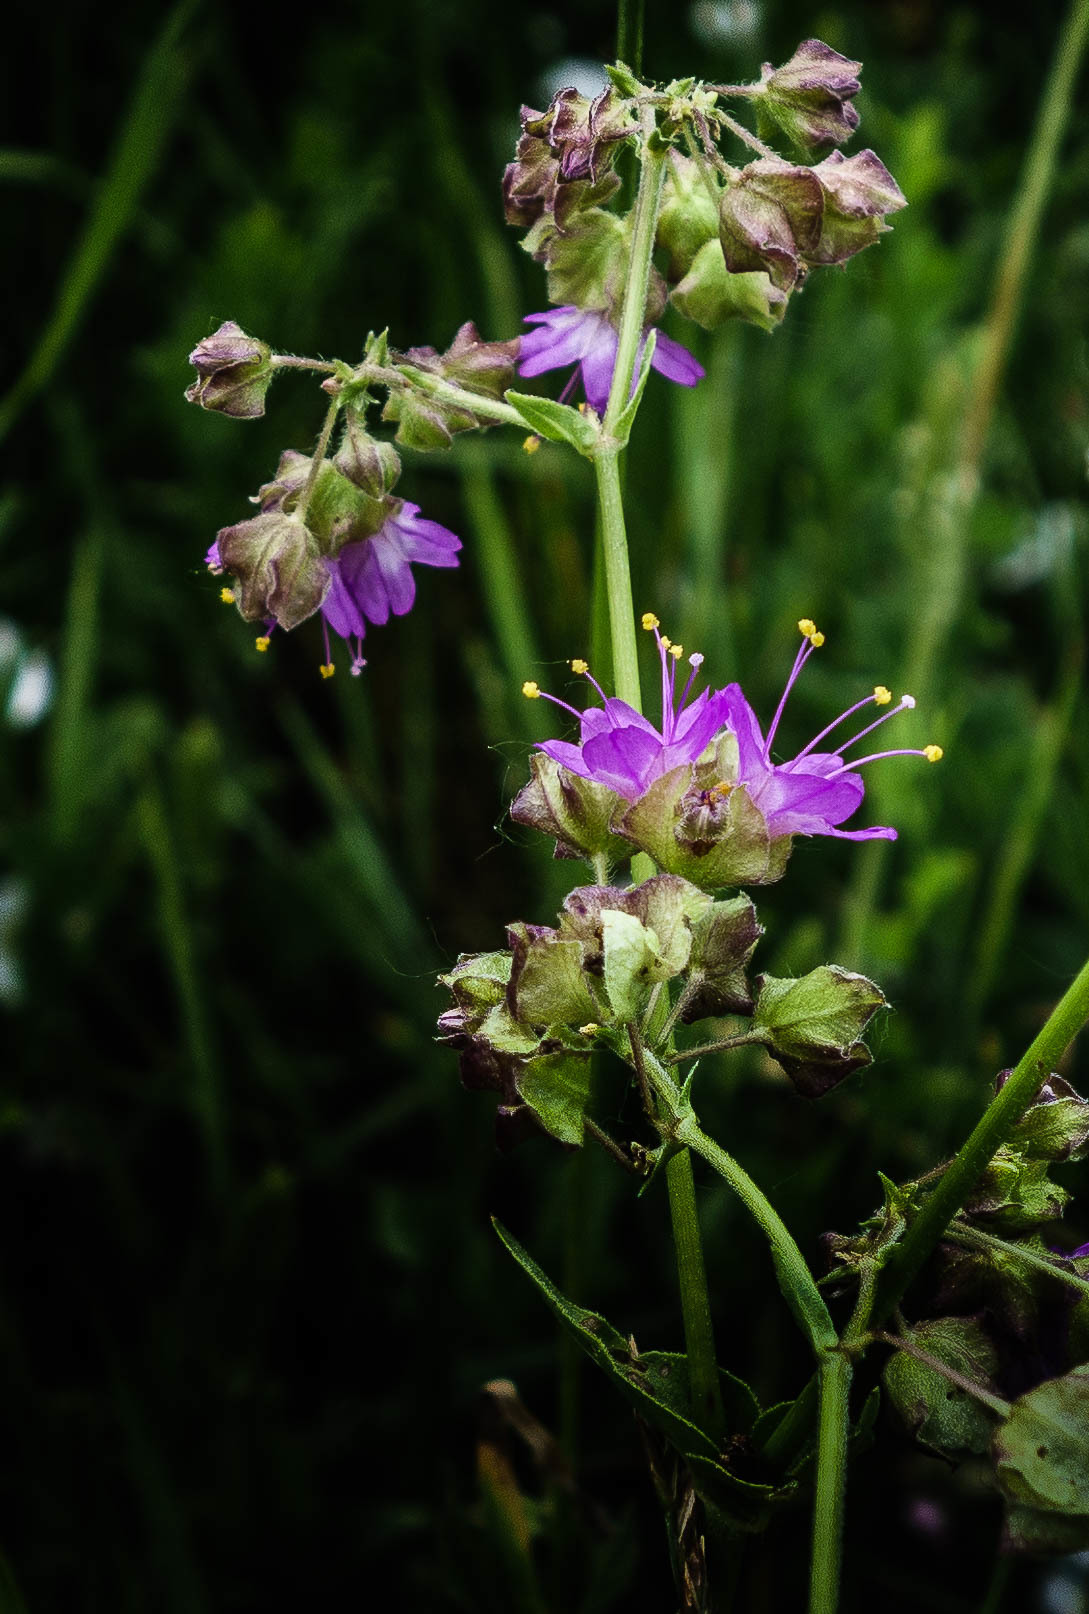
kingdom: Plantae
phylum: Tracheophyta
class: Magnoliopsida
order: Caryophyllales
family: Nyctaginaceae
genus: Mirabilis
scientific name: Mirabilis nyctaginea
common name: Umbrella wort
